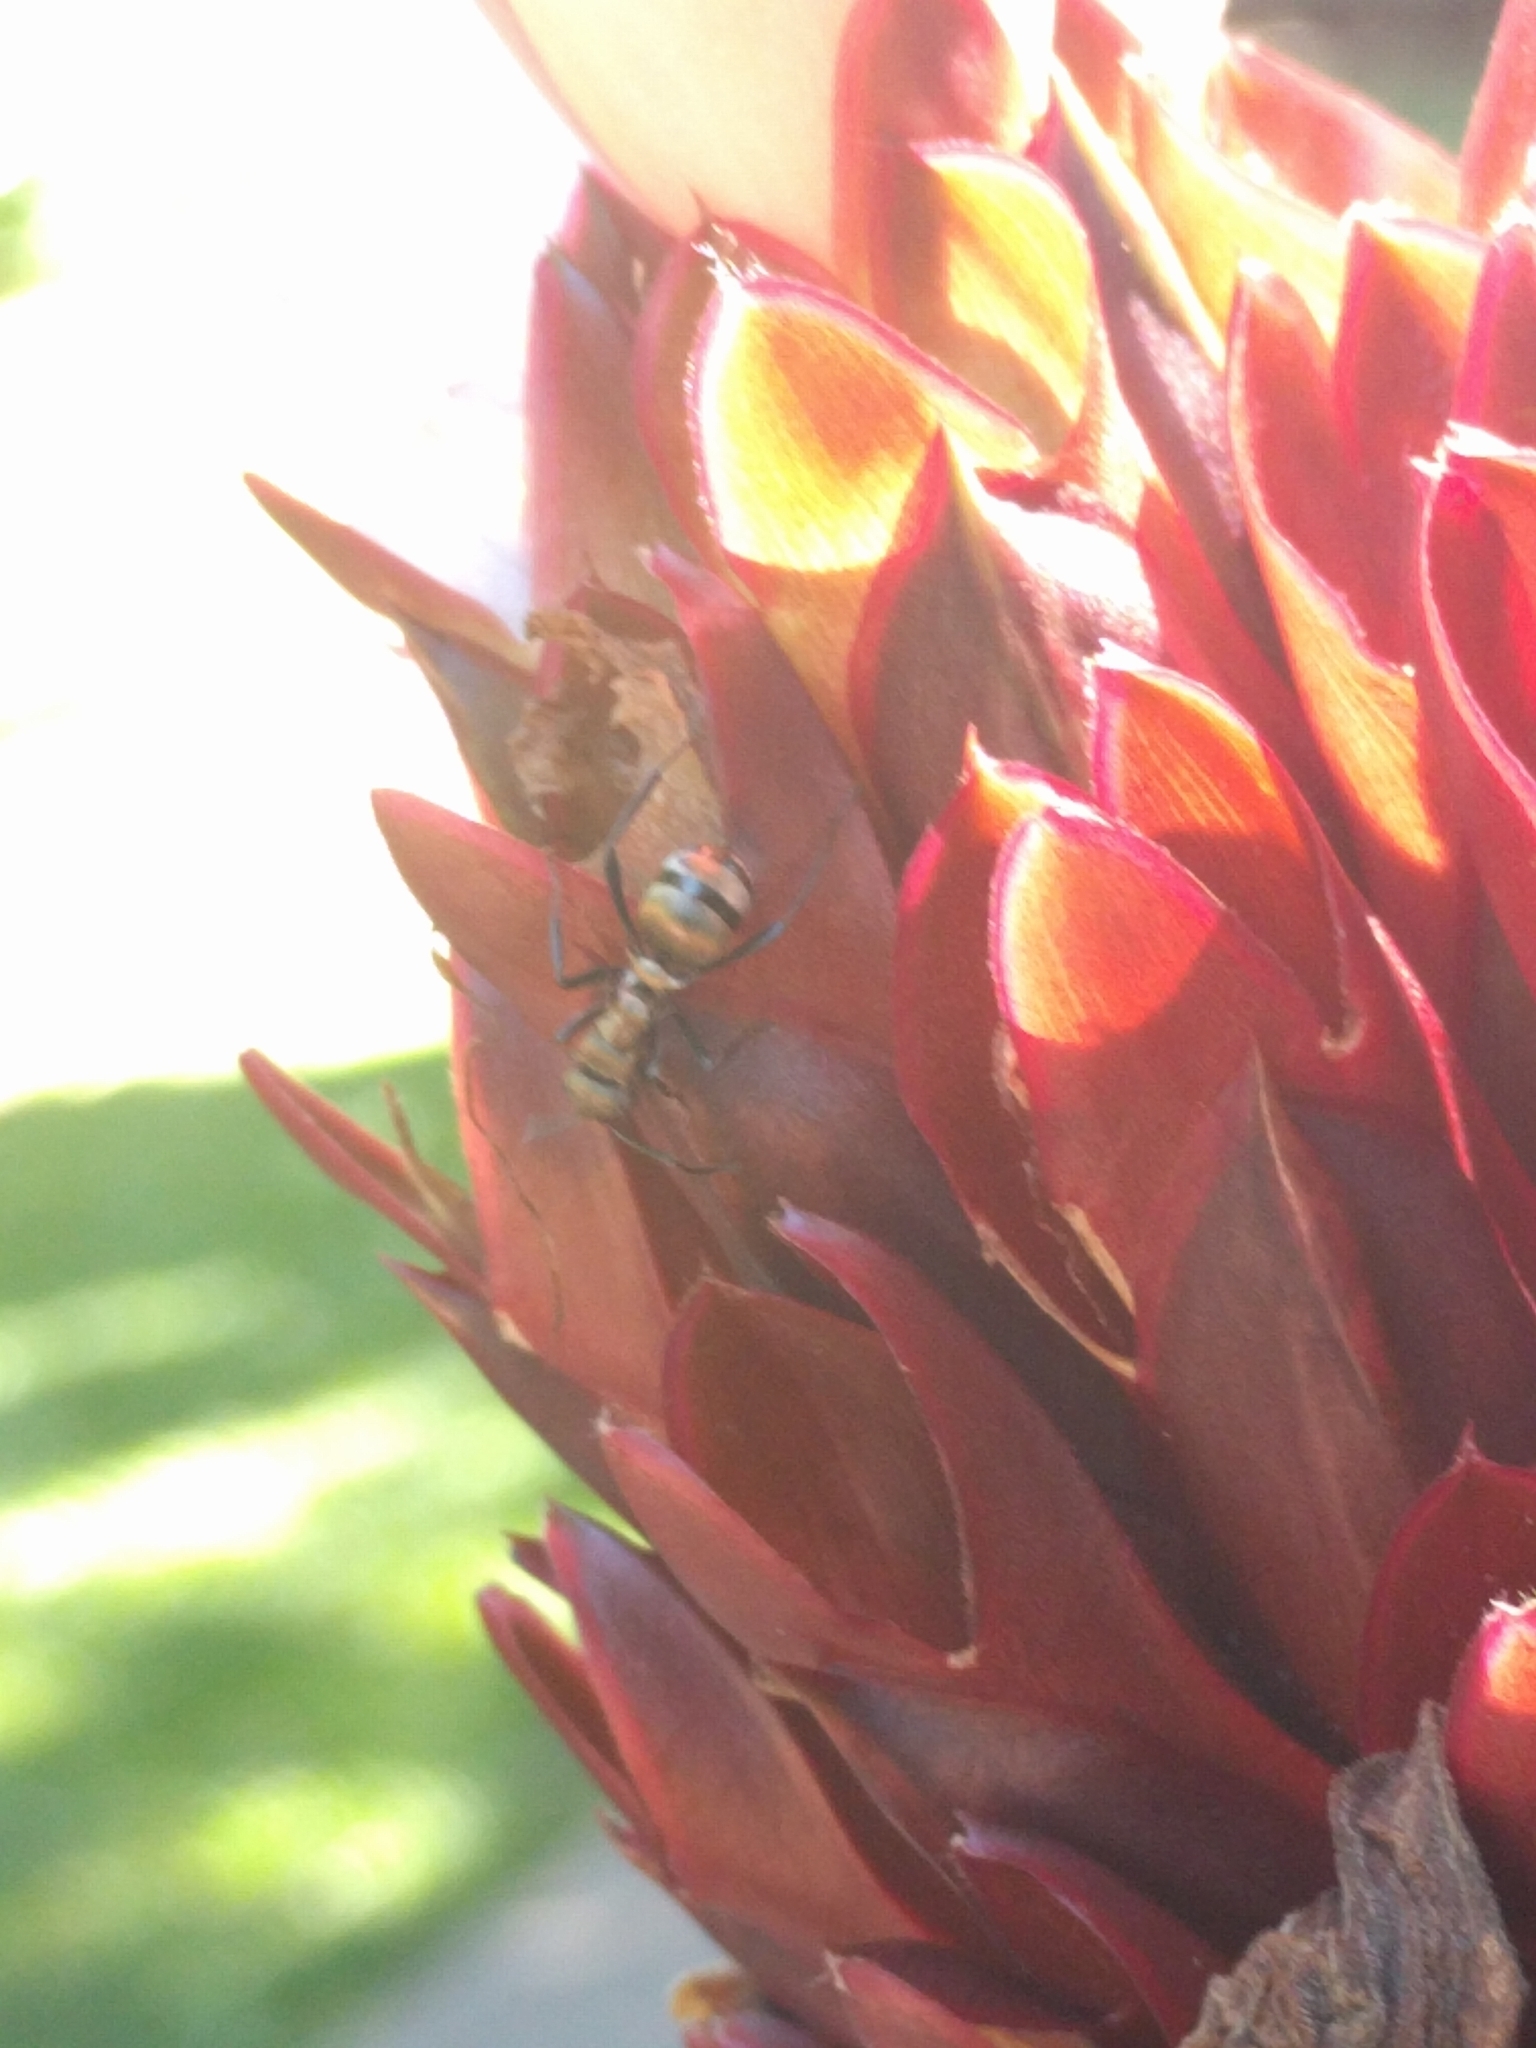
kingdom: Animalia
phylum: Arthropoda
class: Insecta
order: Hymenoptera
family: Formicidae
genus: Polyrhachis
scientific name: Polyrhachis cupreata
